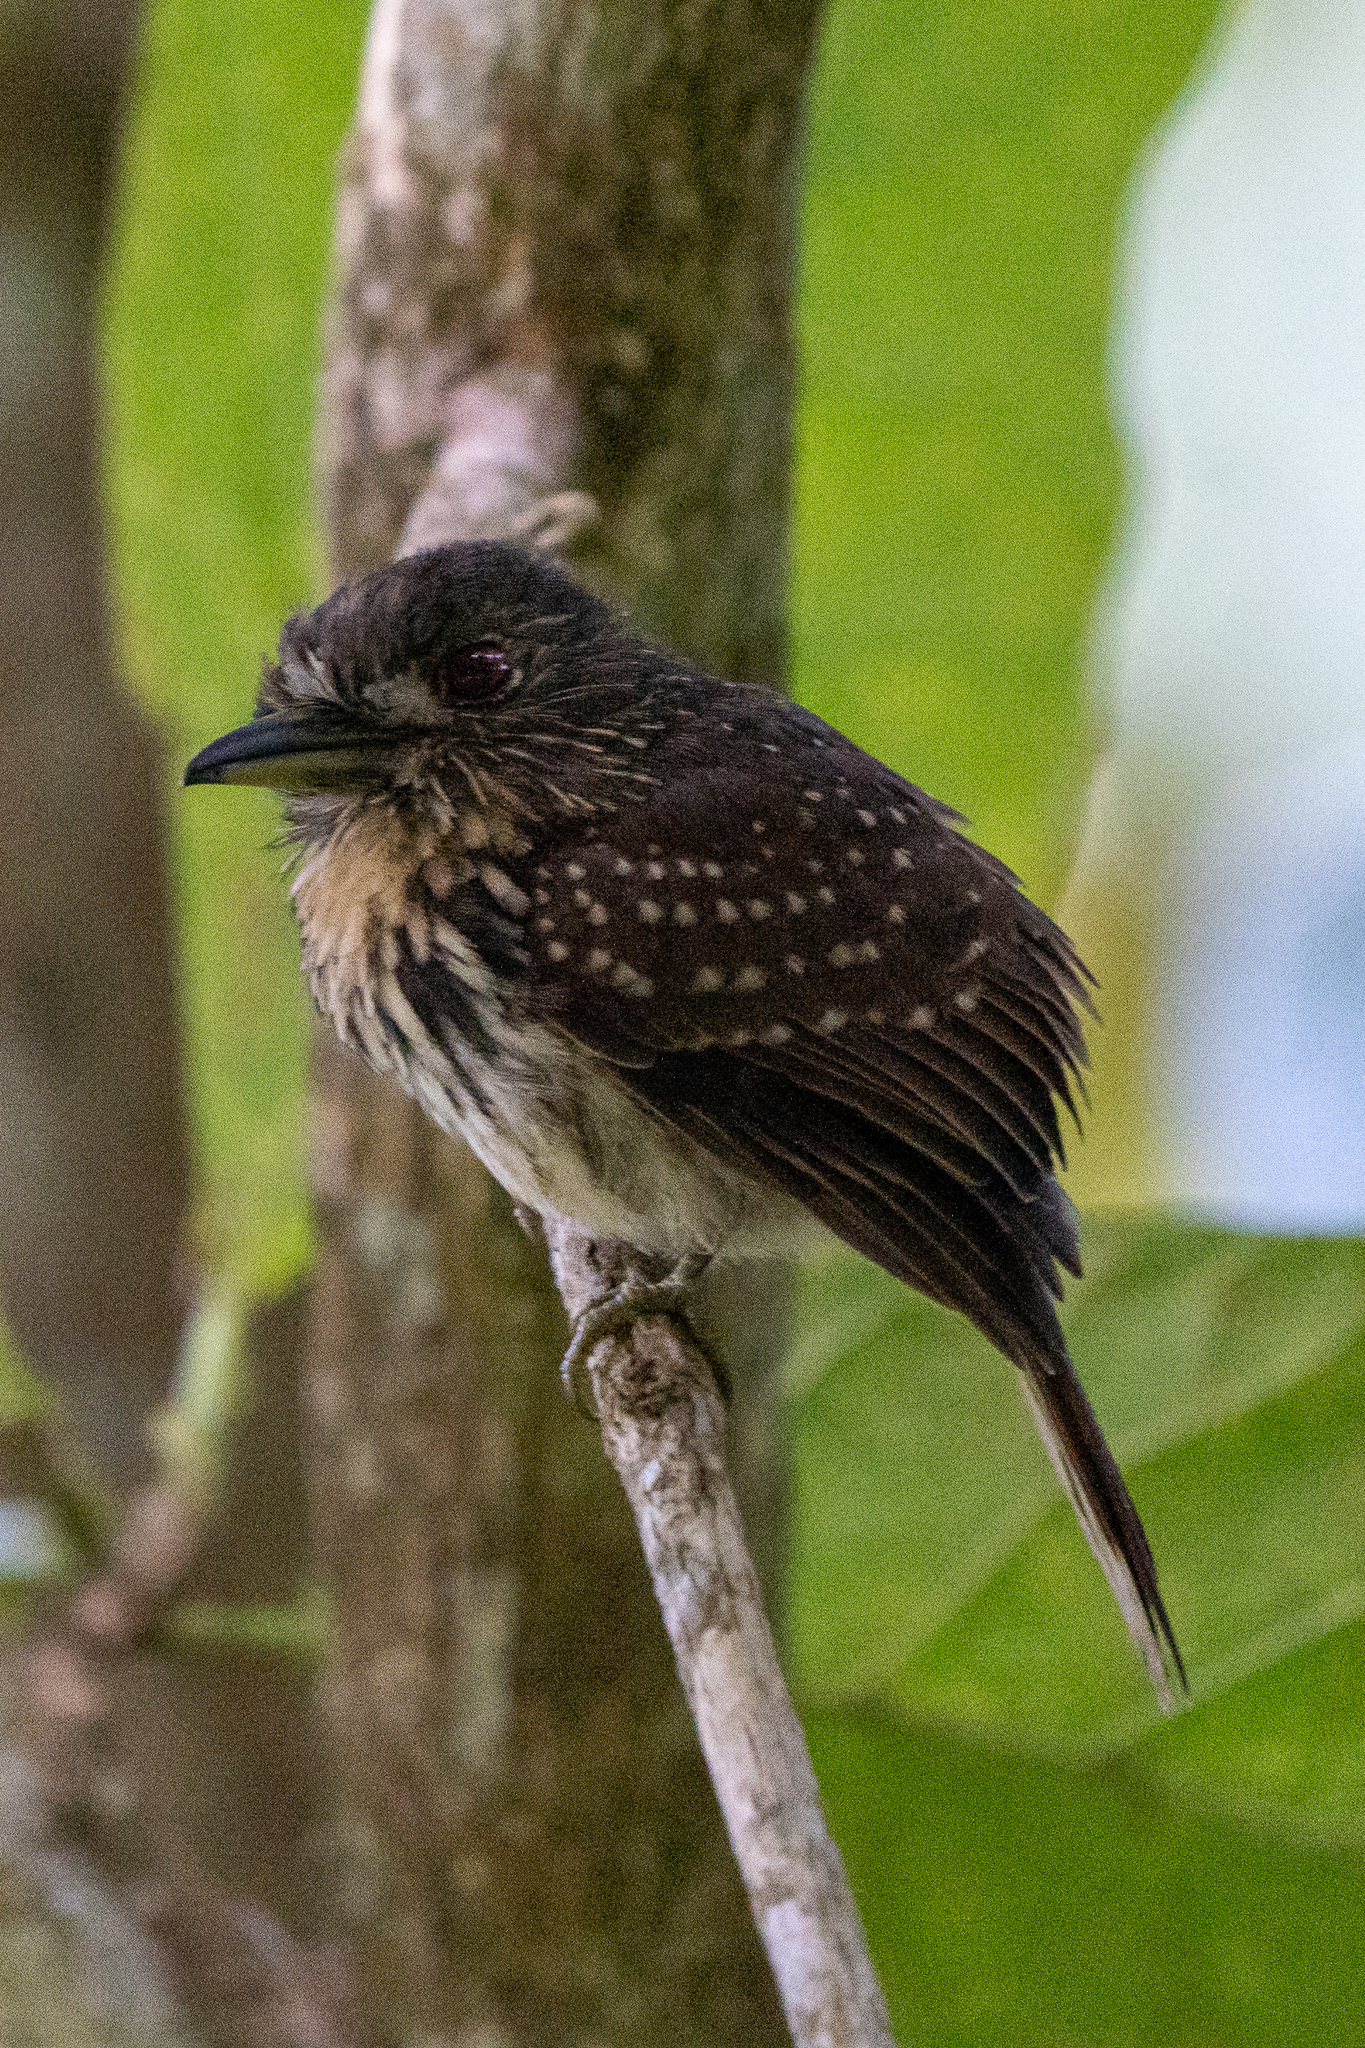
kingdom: Animalia
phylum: Chordata
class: Aves
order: Piciformes
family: Bucconidae
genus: Malacoptila
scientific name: Malacoptila panamensis
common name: White-whiskered puffbird
